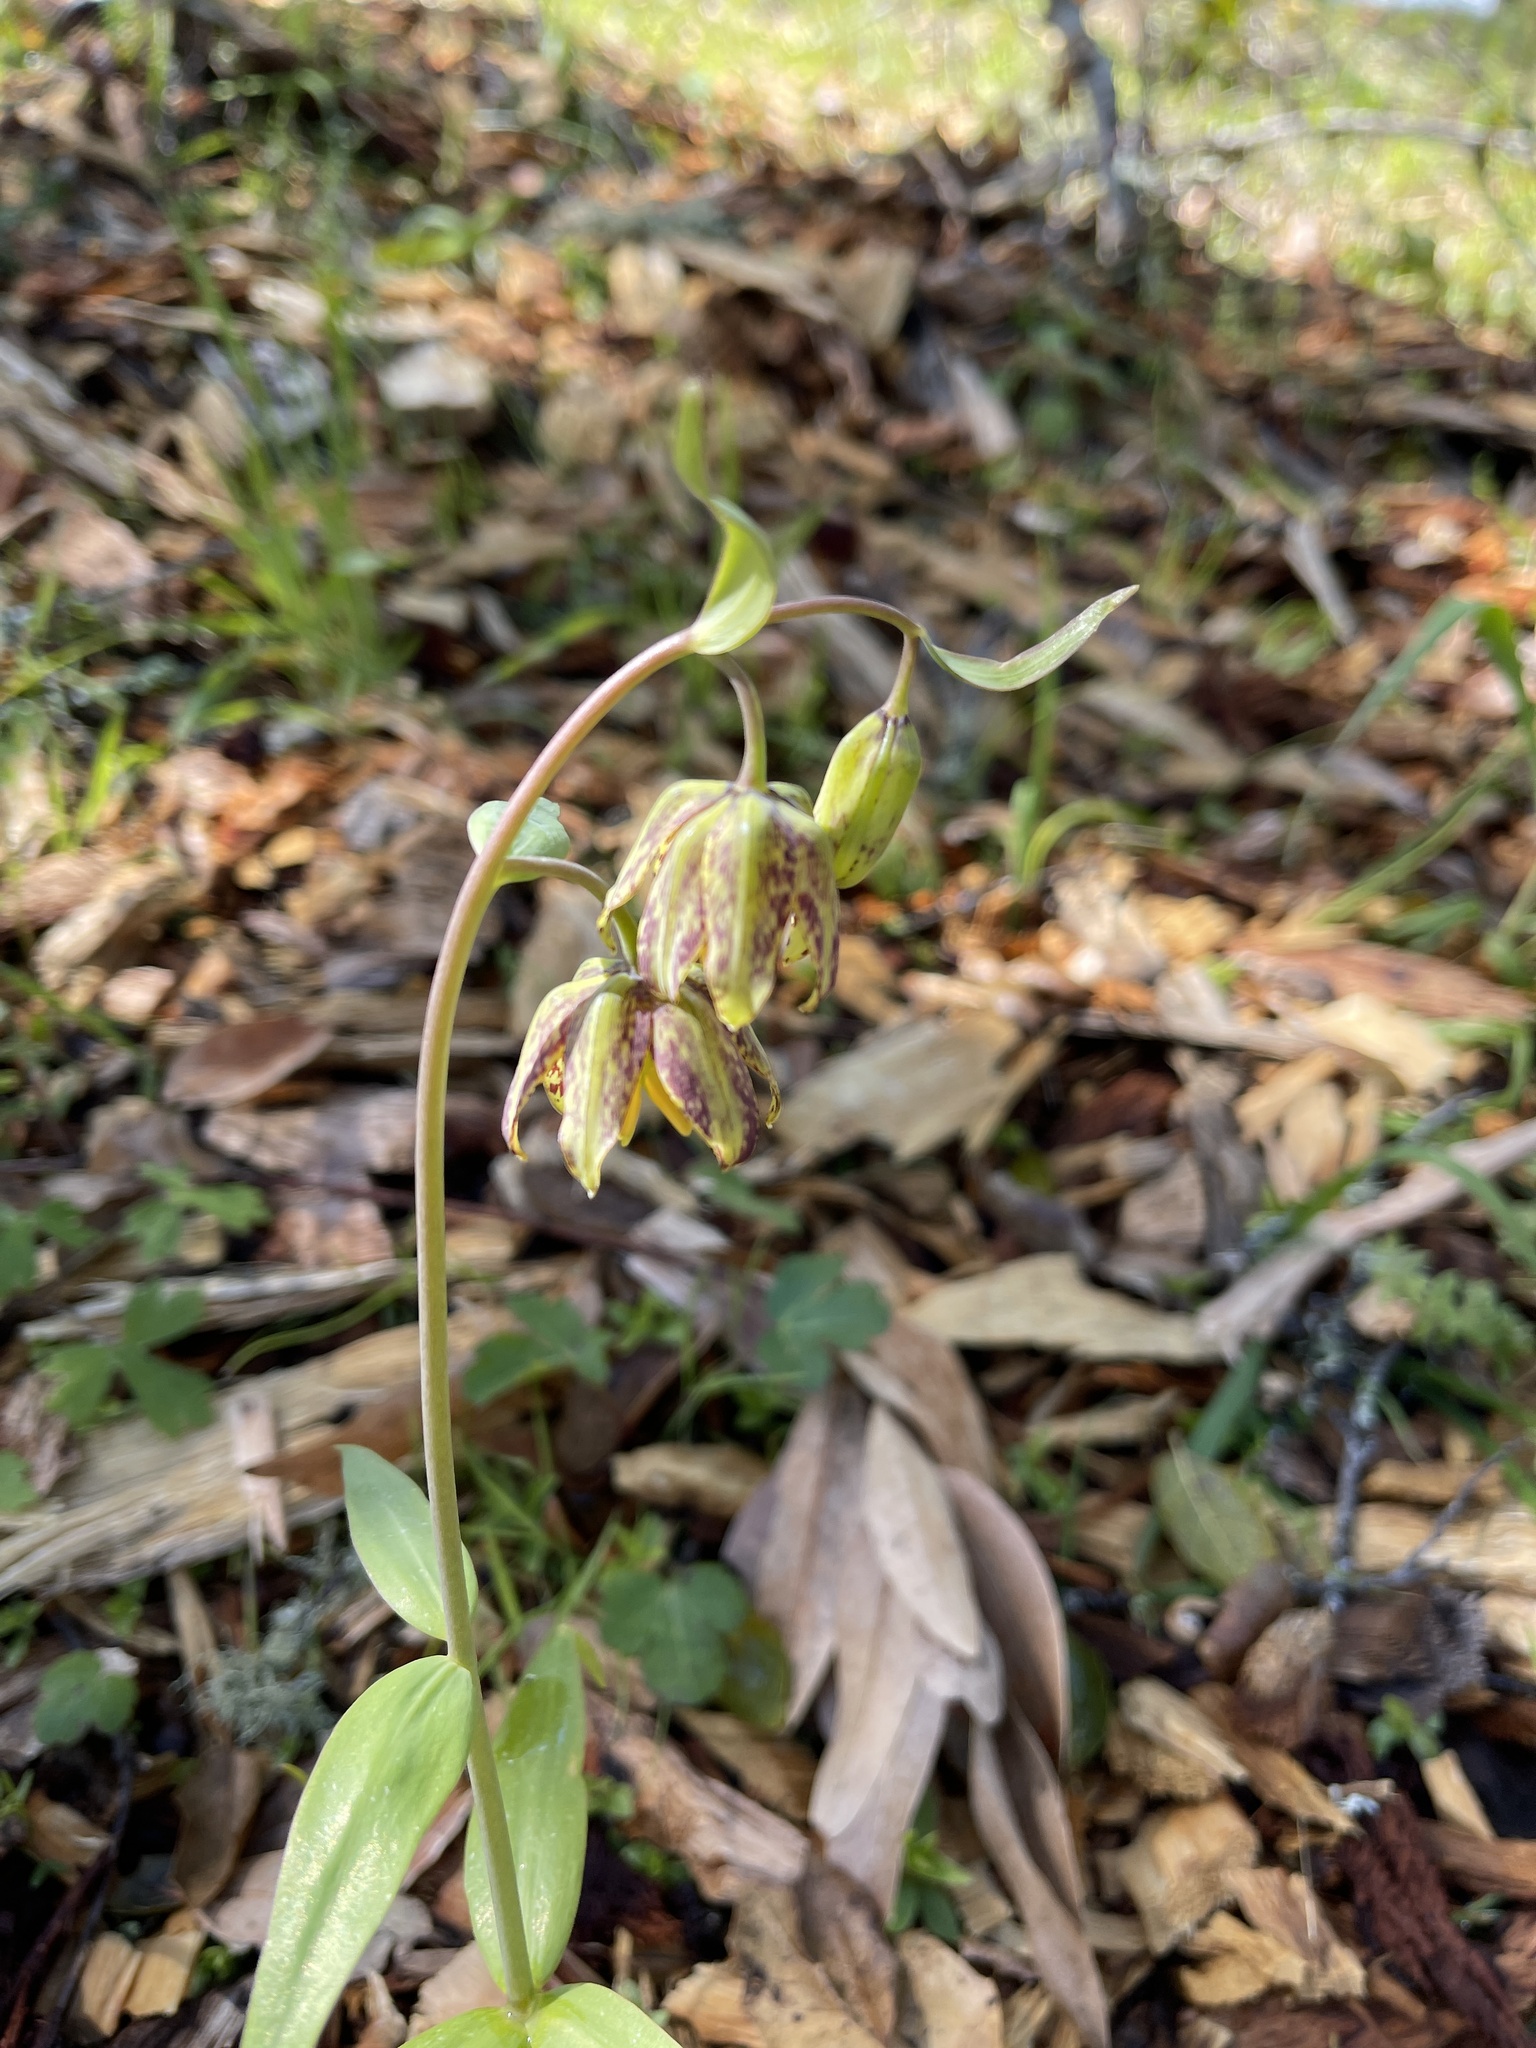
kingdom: Plantae
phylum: Tracheophyta
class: Liliopsida
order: Liliales
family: Liliaceae
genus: Fritillaria
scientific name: Fritillaria affinis
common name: Ojai fritillary
